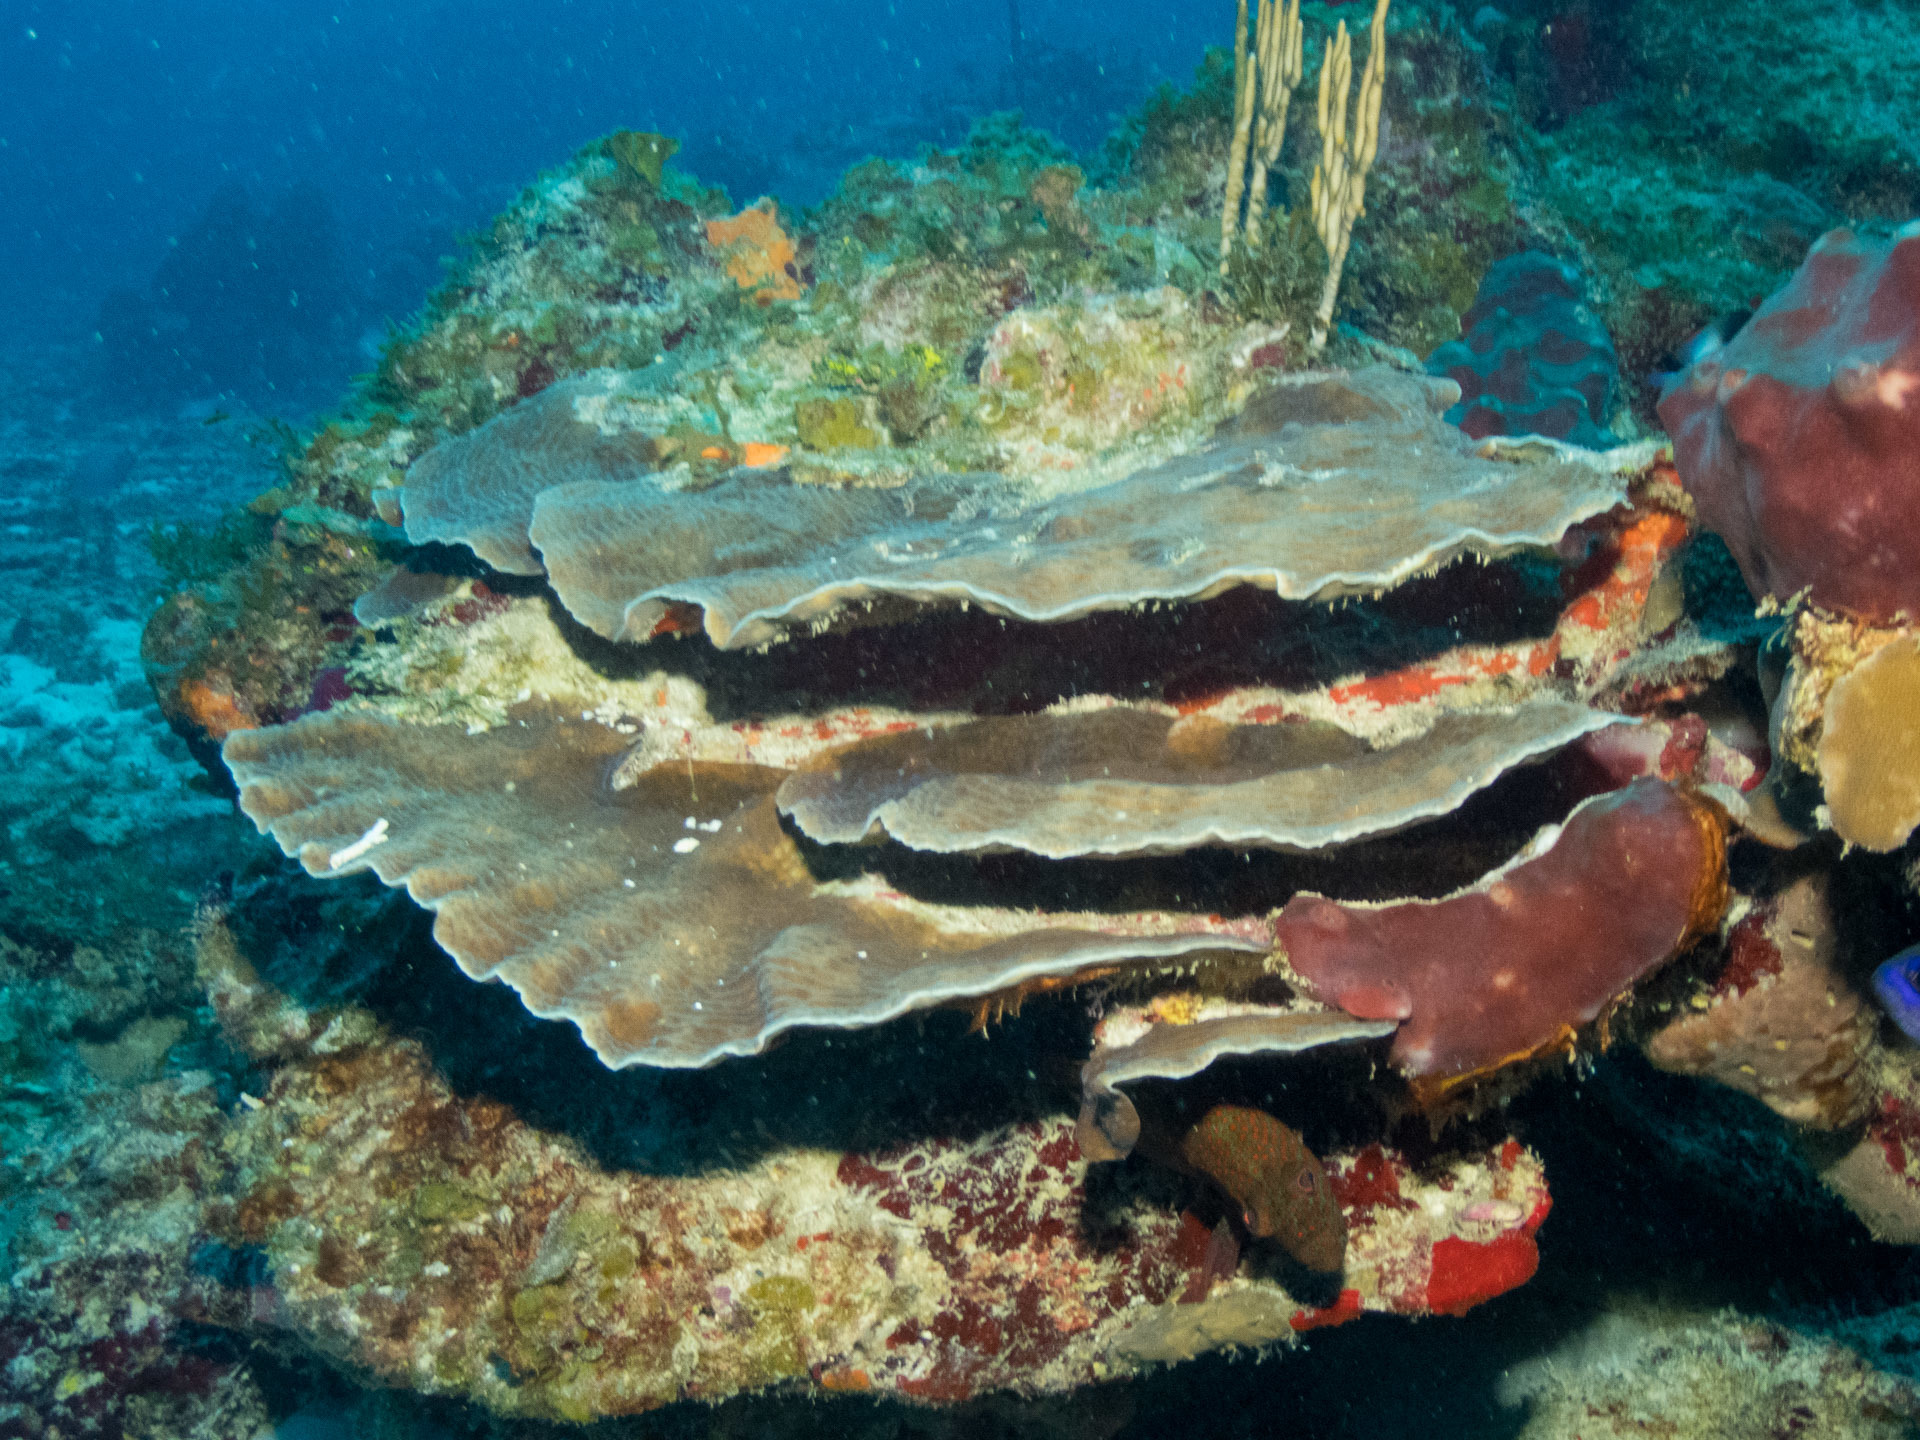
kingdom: Animalia
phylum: Cnidaria
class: Anthozoa
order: Scleractinia
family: Agariciidae
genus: Agaricia
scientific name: Agaricia grahamae
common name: Graham's sheet coral
